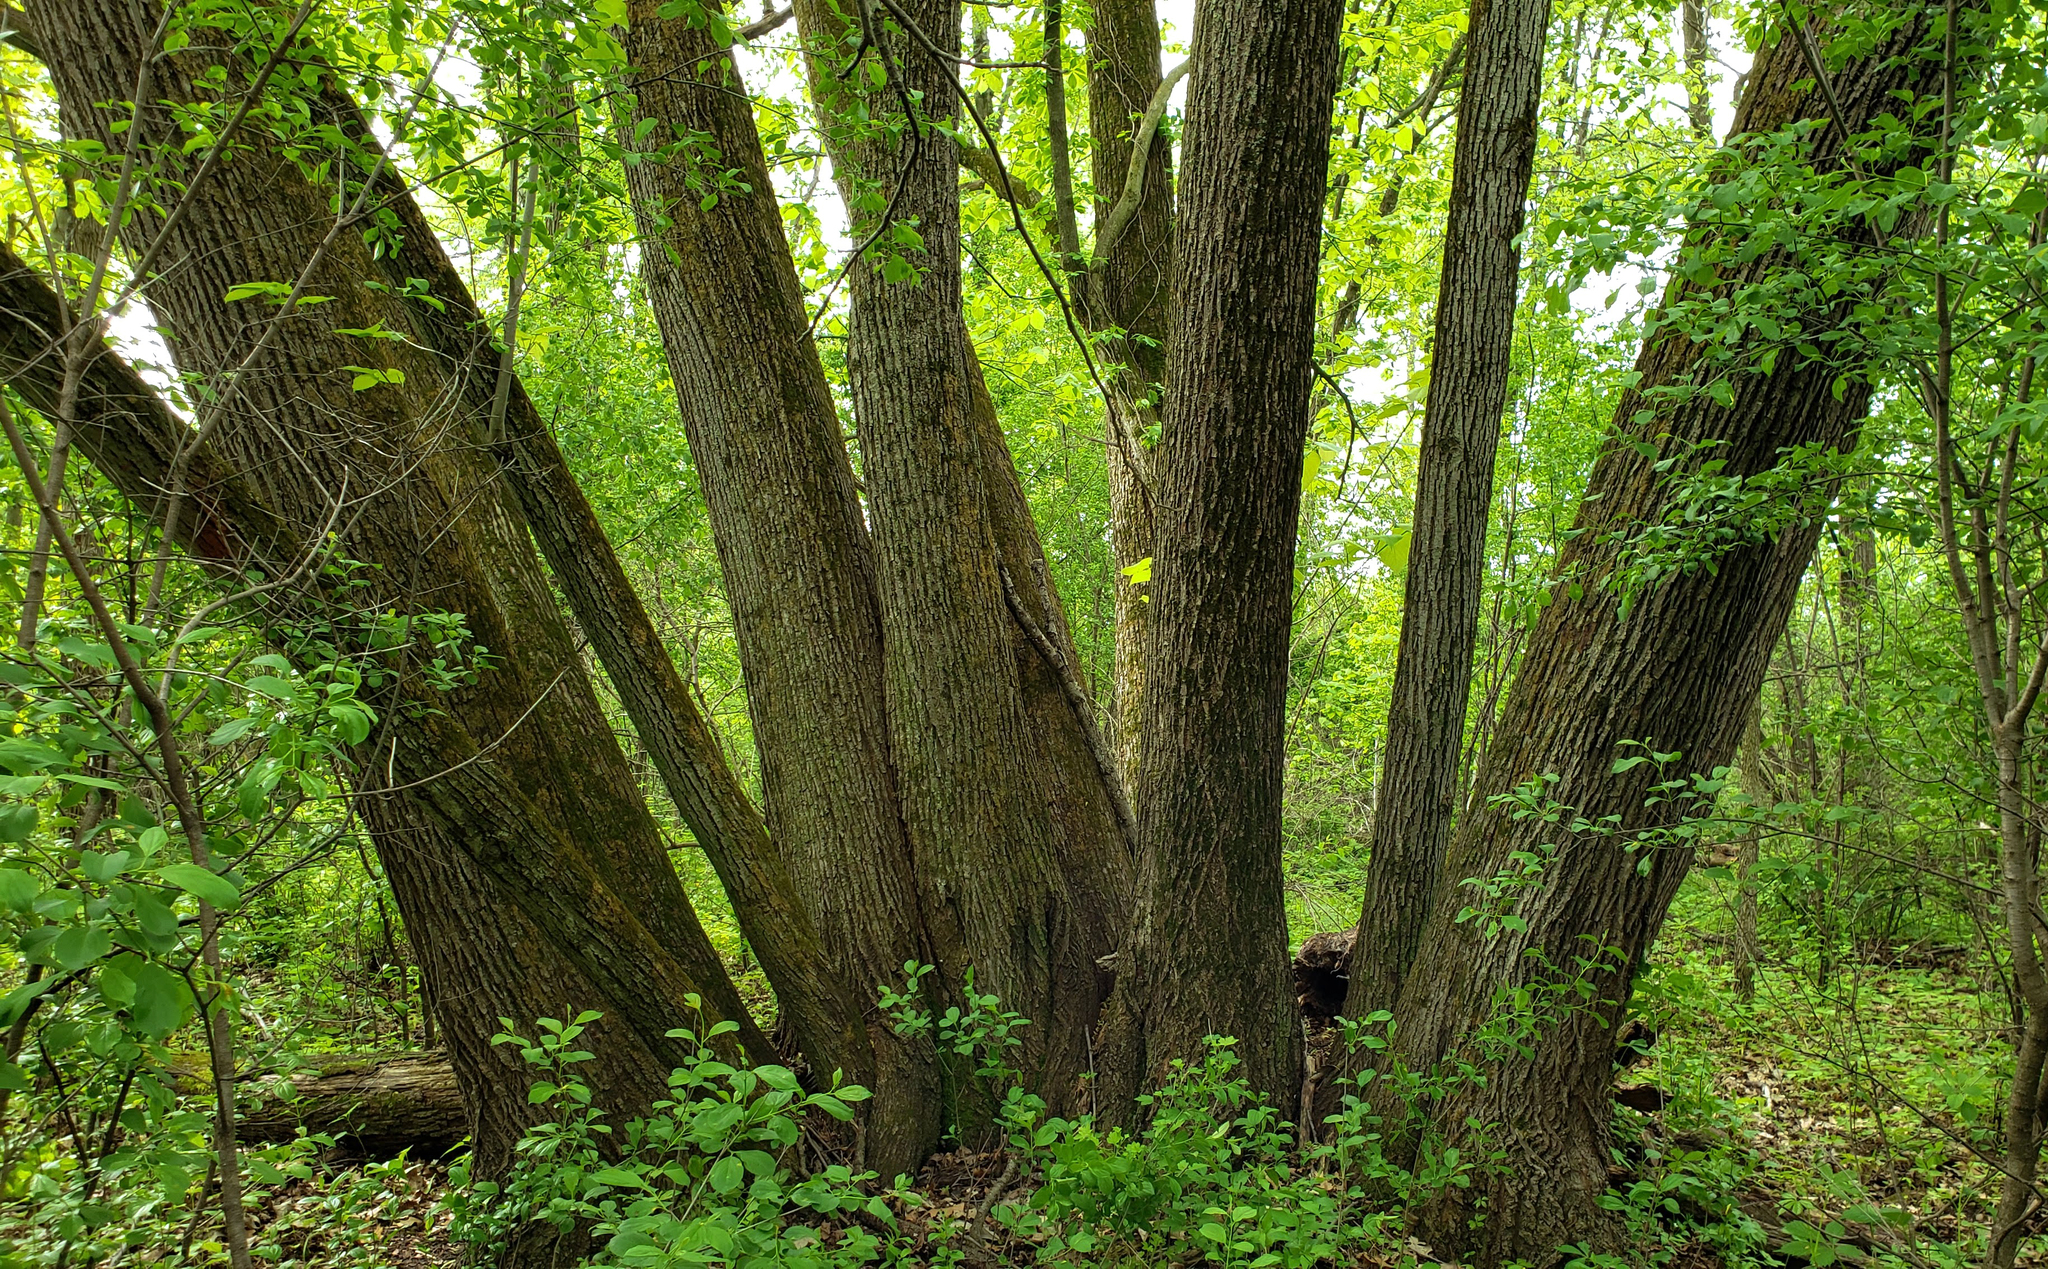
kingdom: Plantae
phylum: Tracheophyta
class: Magnoliopsida
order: Malvales
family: Malvaceae
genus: Tilia
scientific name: Tilia americana
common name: Basswood
